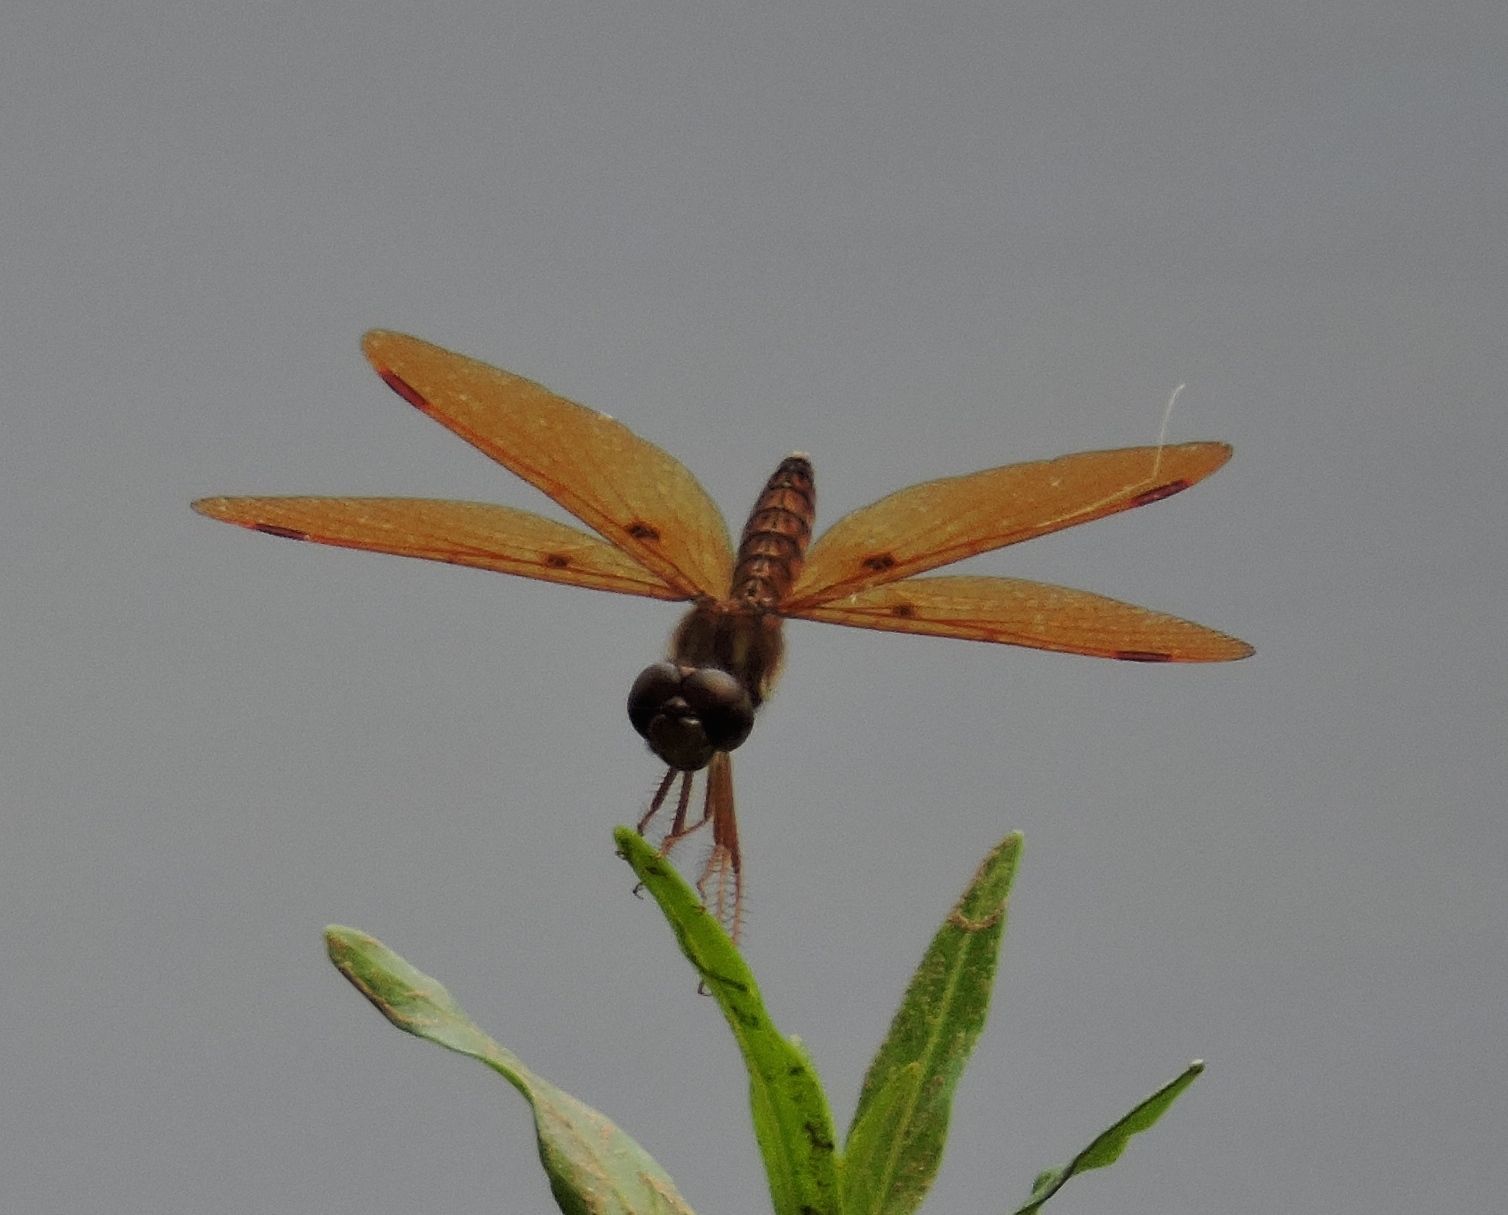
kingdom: Animalia
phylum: Arthropoda
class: Insecta
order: Odonata
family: Libellulidae
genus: Perithemis
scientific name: Perithemis tenera
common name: Eastern amberwing
